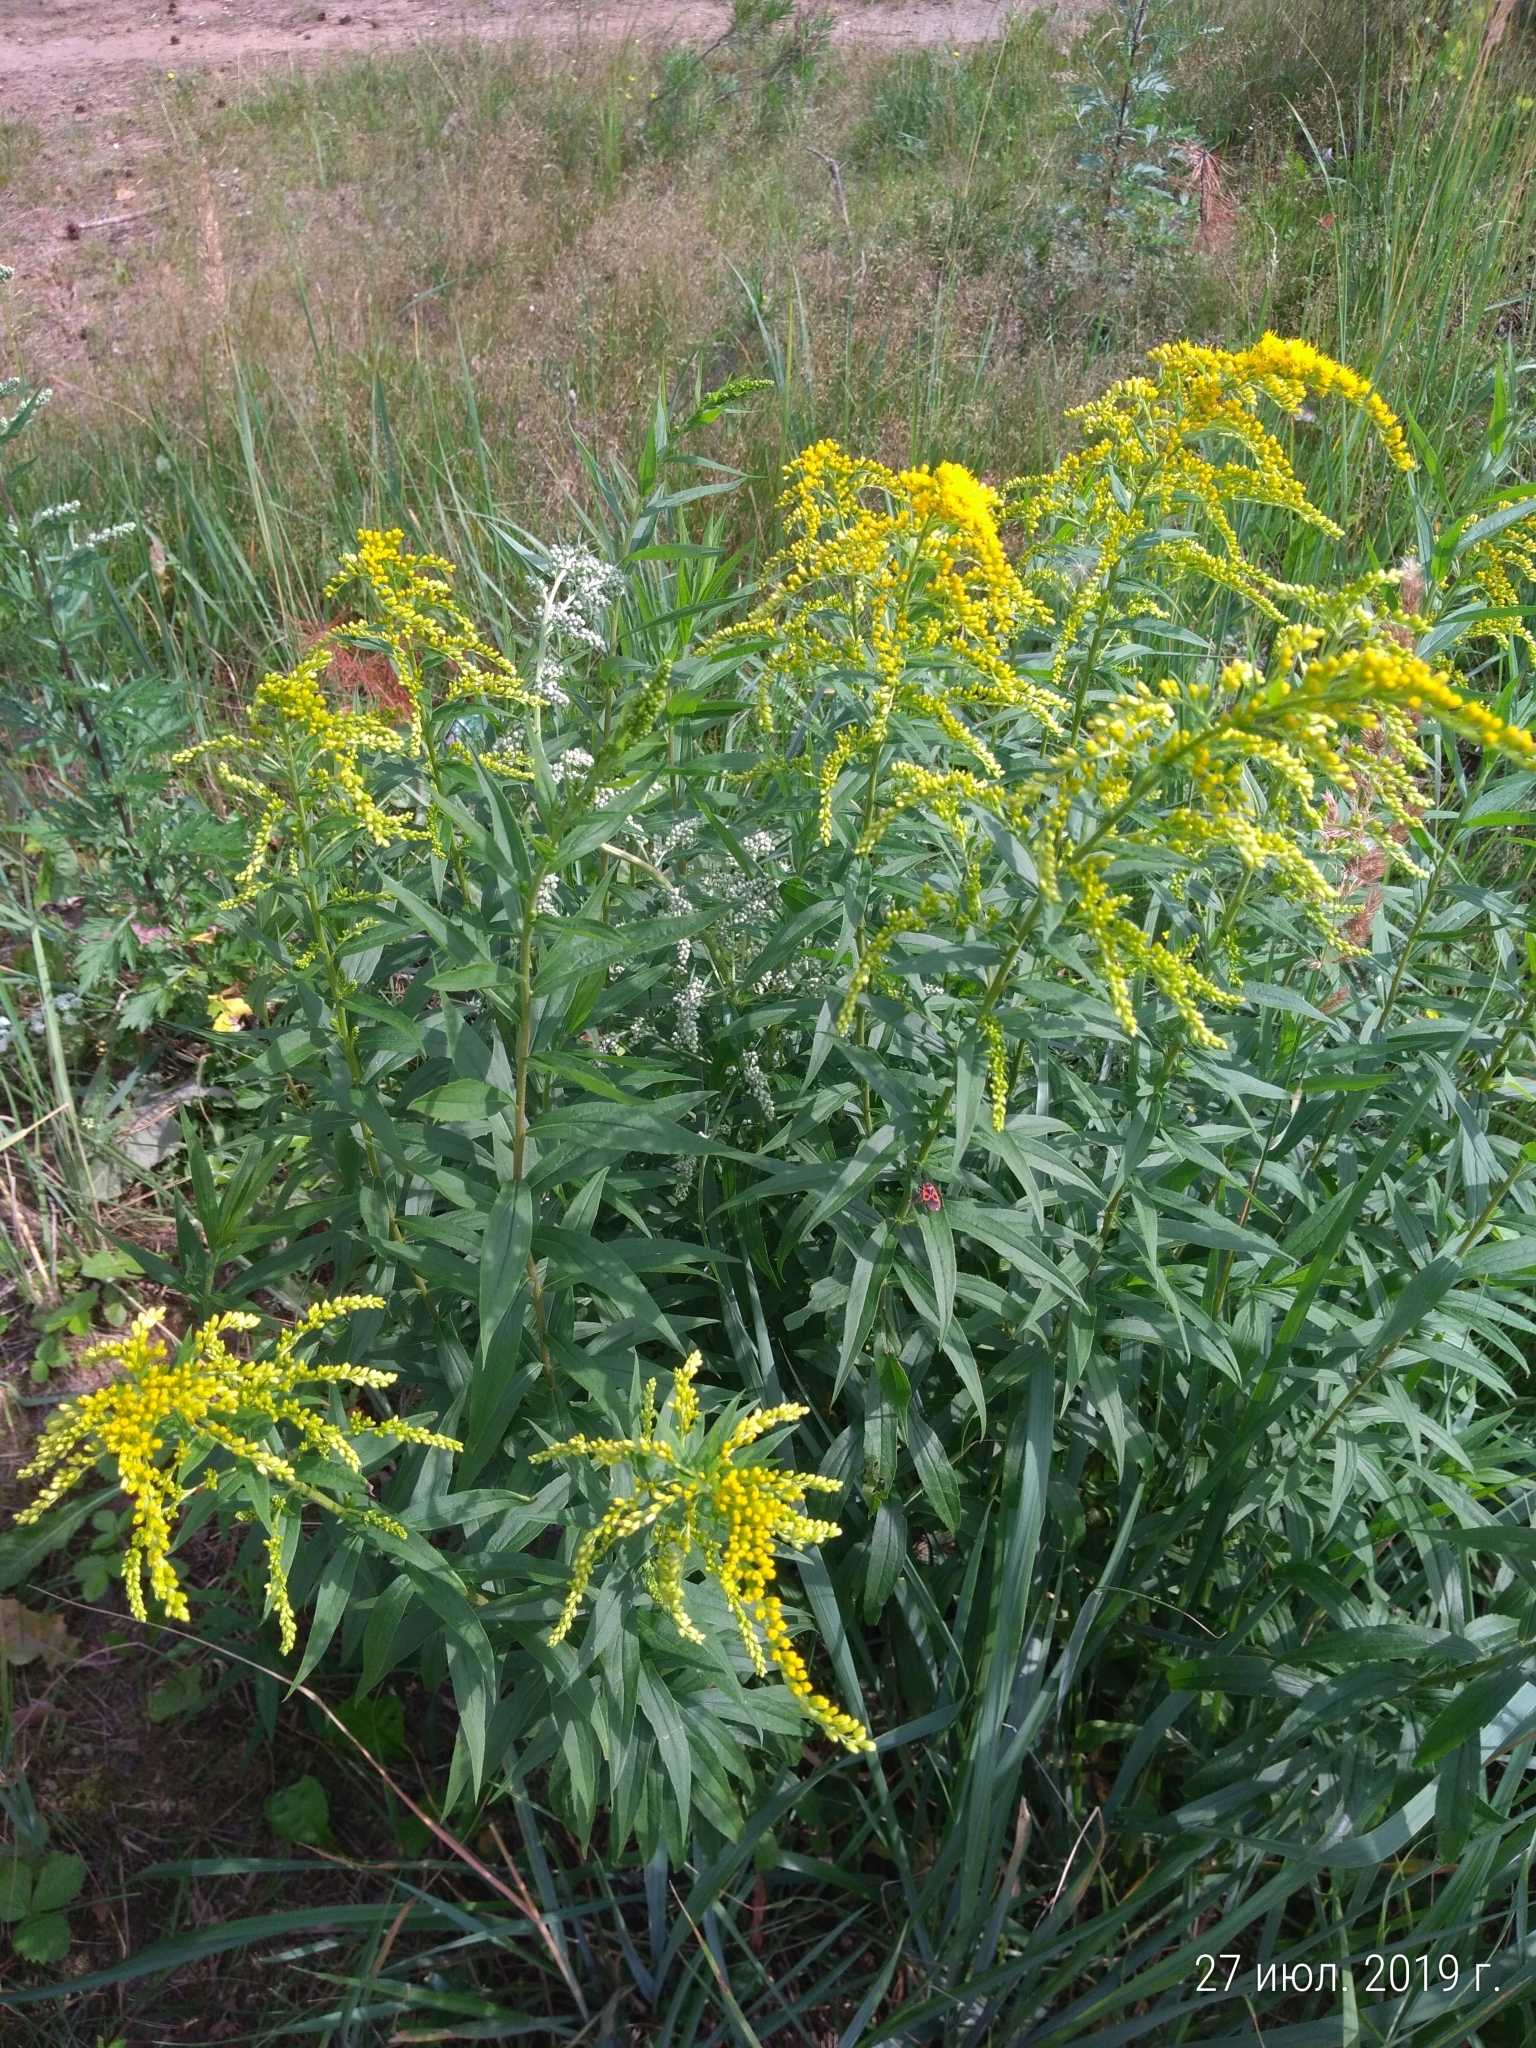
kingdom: Plantae
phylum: Tracheophyta
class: Magnoliopsida
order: Asterales
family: Asteraceae
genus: Solidago
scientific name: Solidago canadensis
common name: Canada goldenrod
